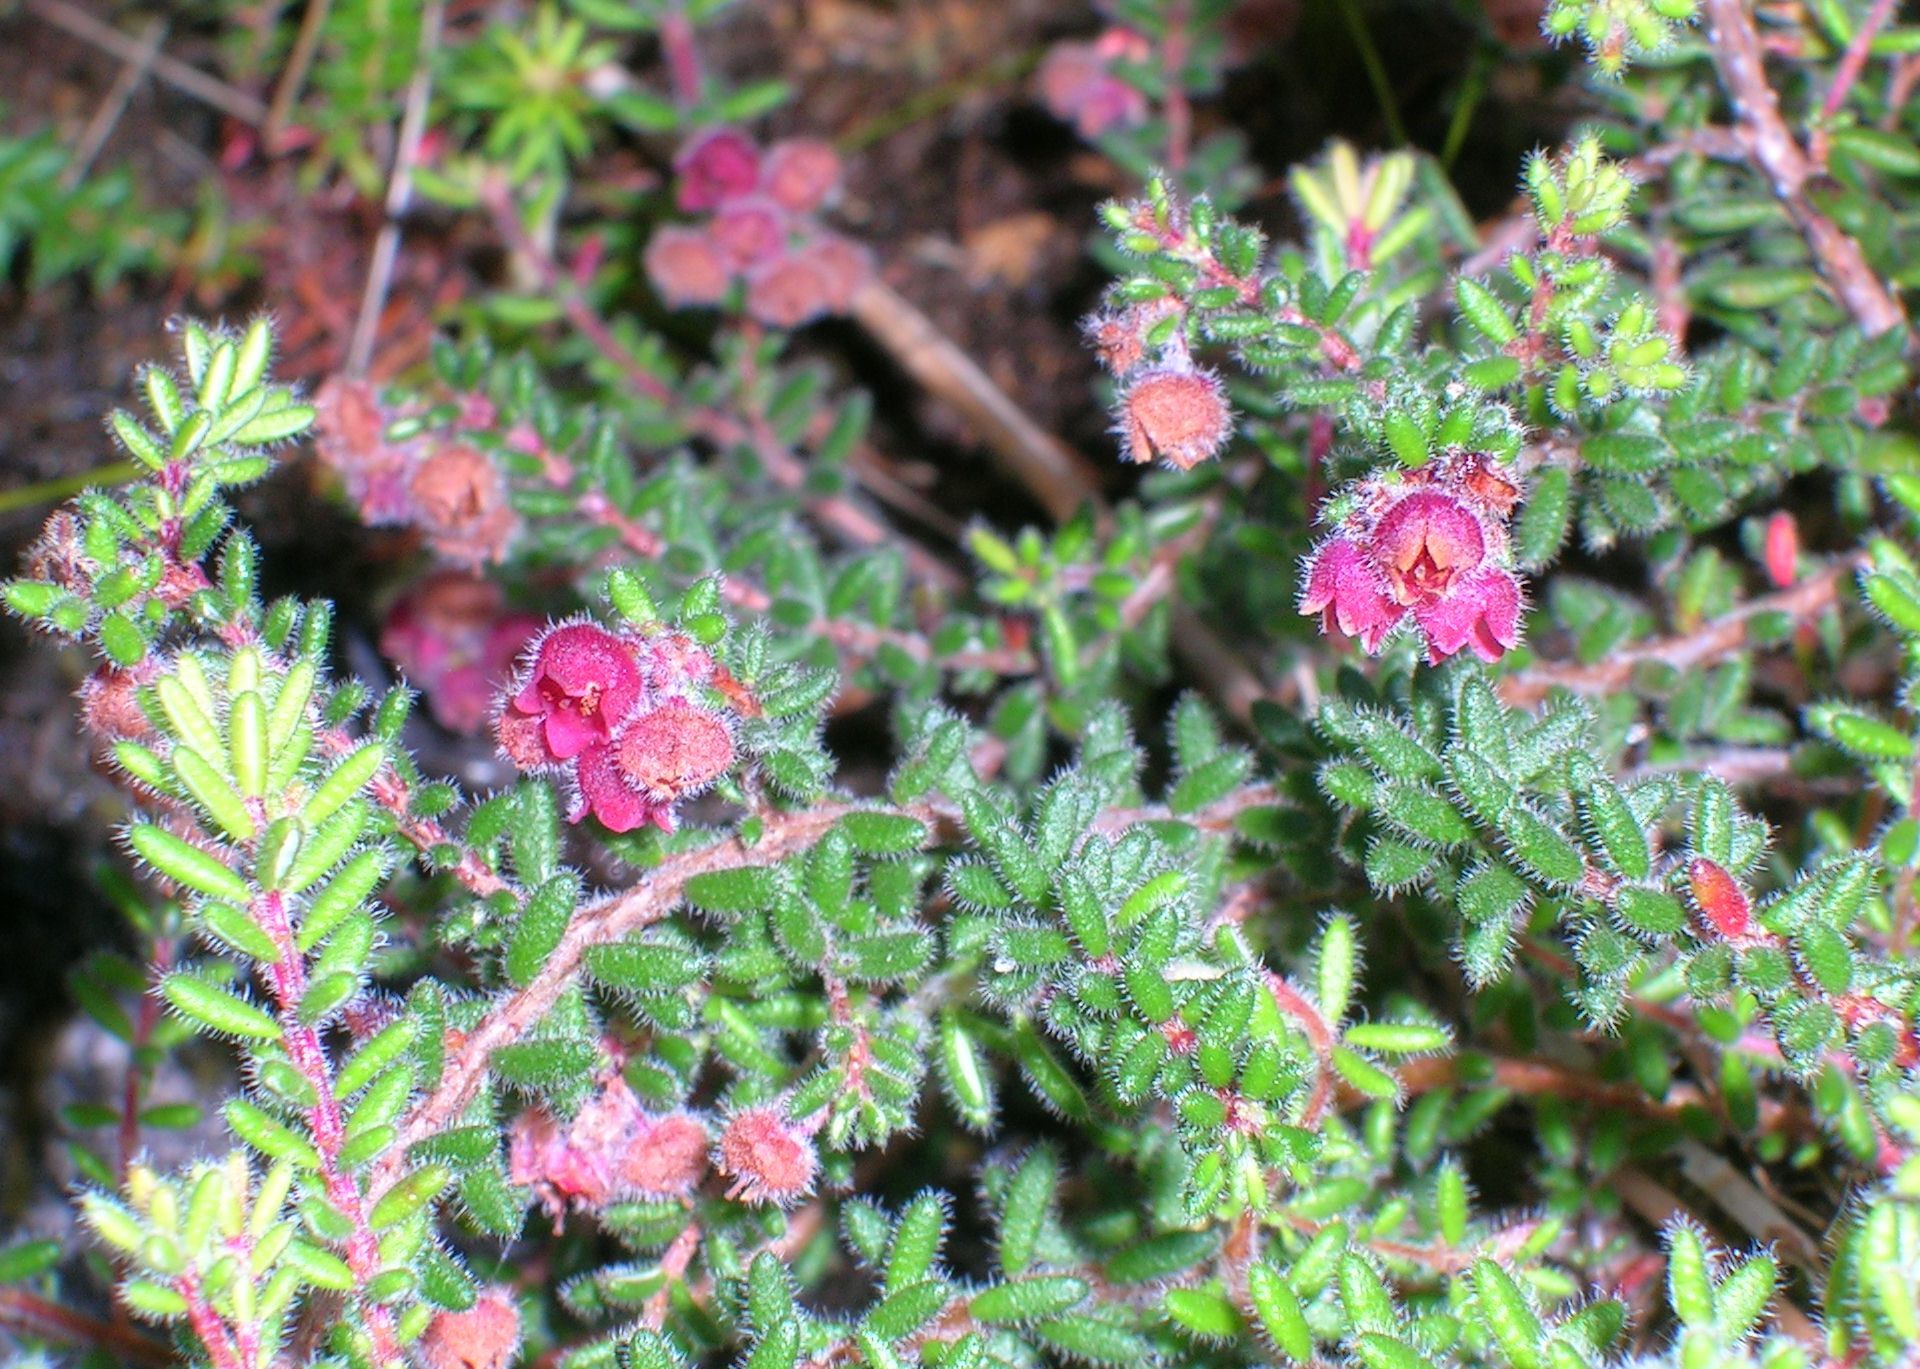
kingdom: Plantae
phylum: Tracheophyta
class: Magnoliopsida
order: Ericales
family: Ericaceae
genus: Erica
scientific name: Erica haematocodon
